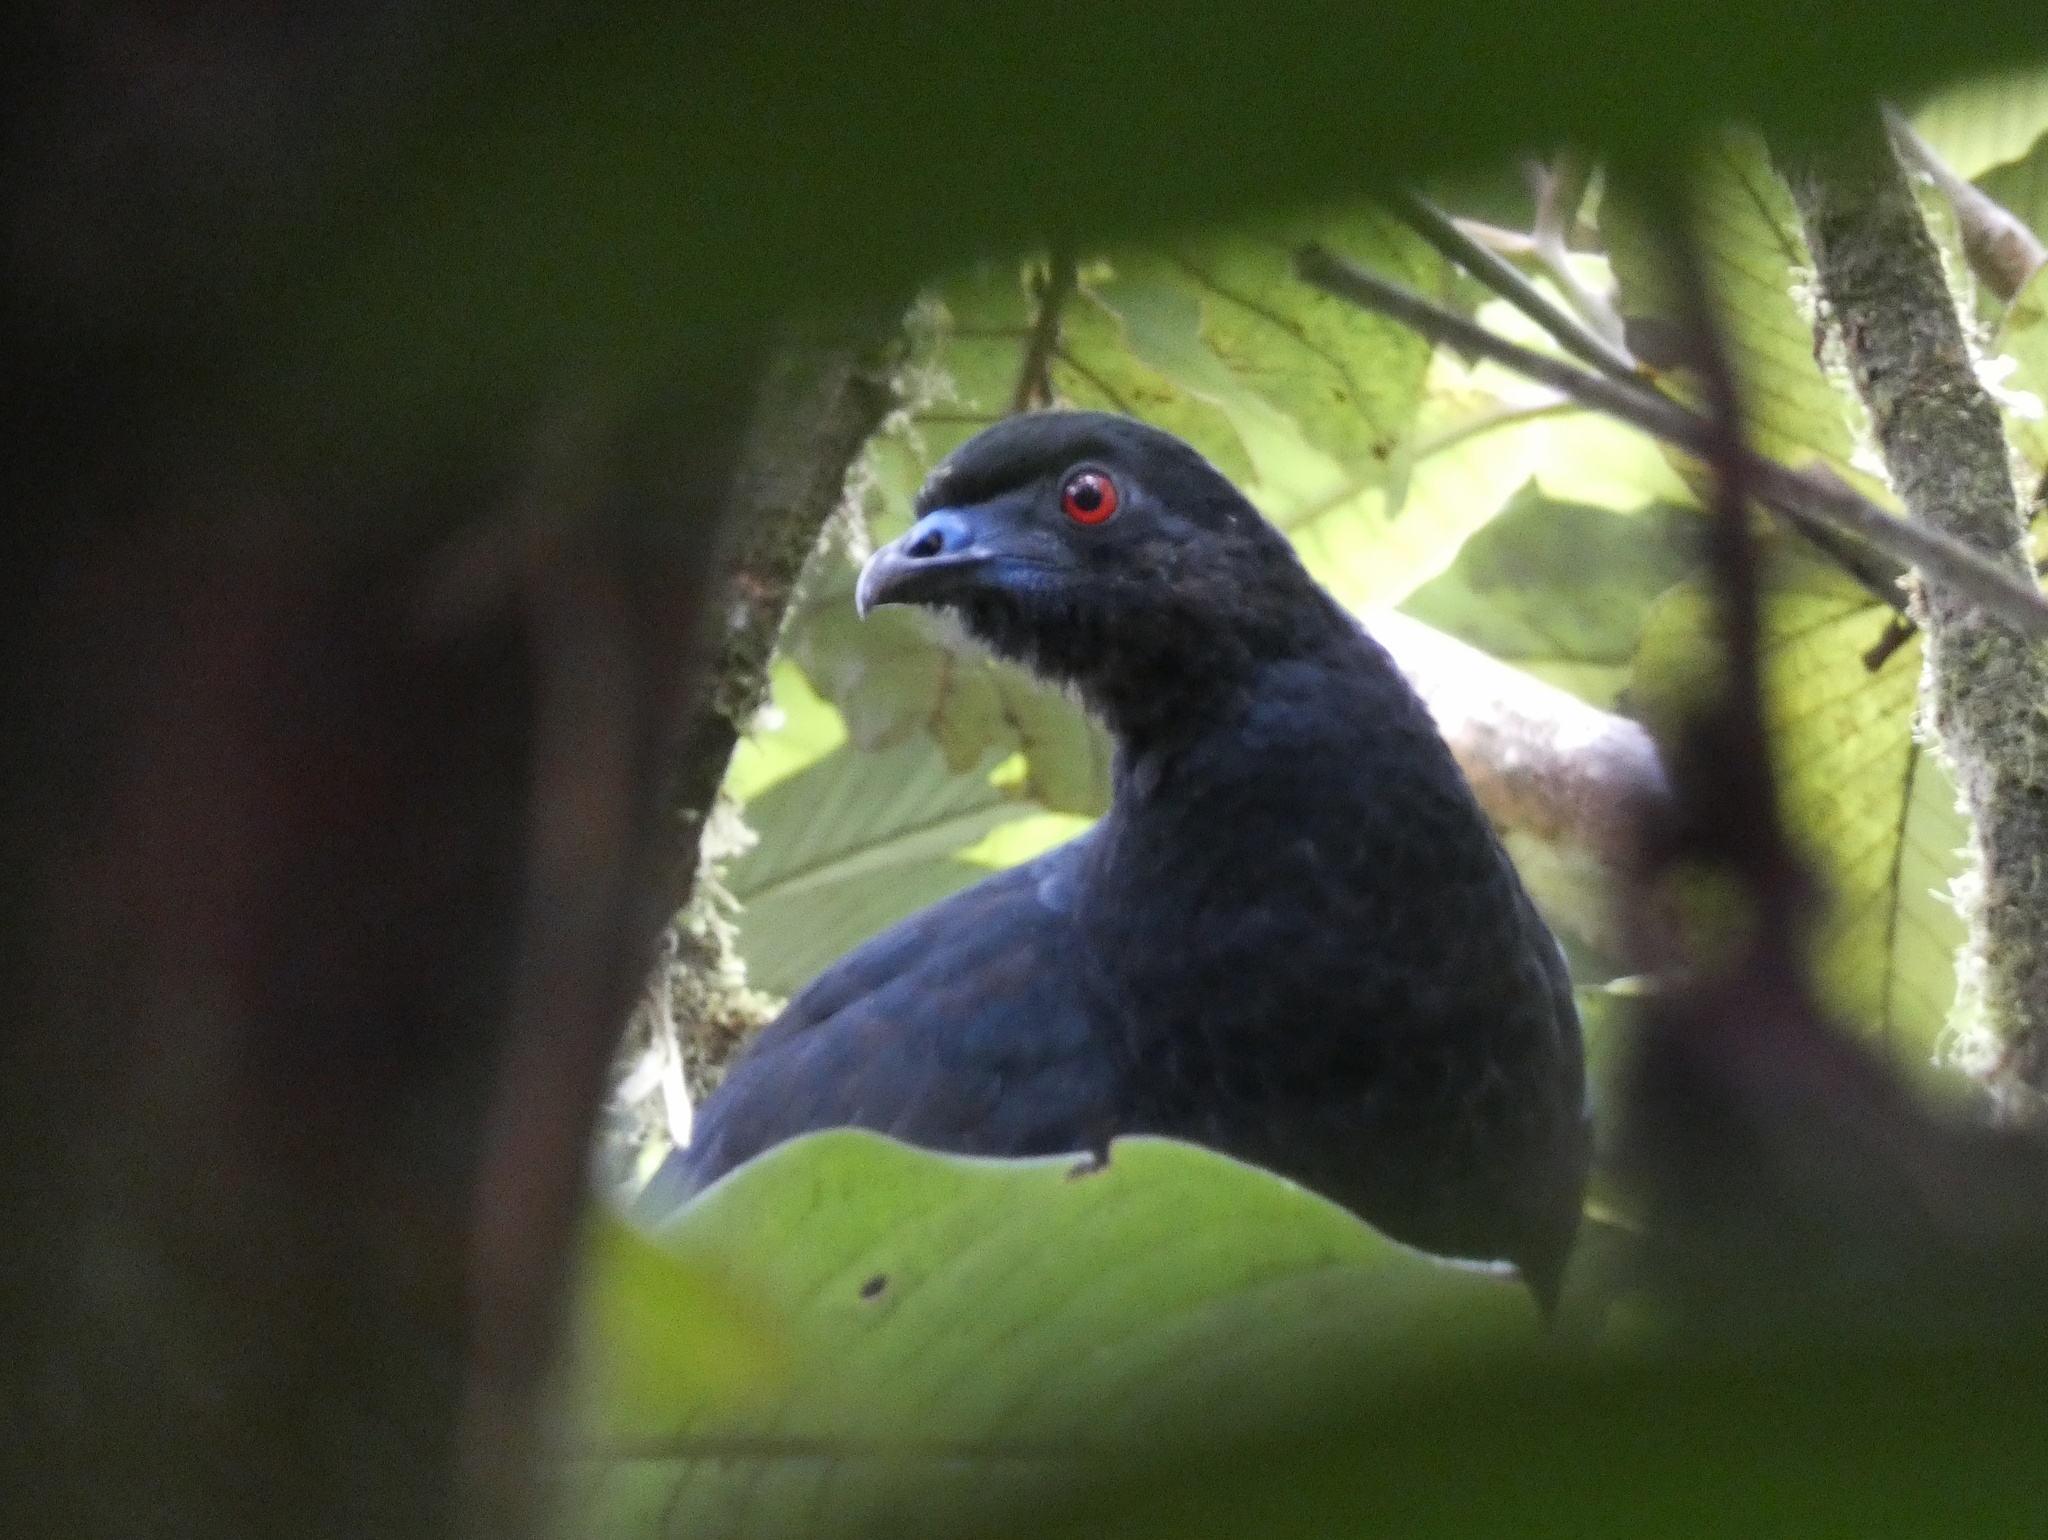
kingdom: Animalia
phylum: Chordata
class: Aves
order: Galliformes
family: Cracidae
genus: Chamaepetes
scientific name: Chamaepetes unicolor
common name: Black guan
